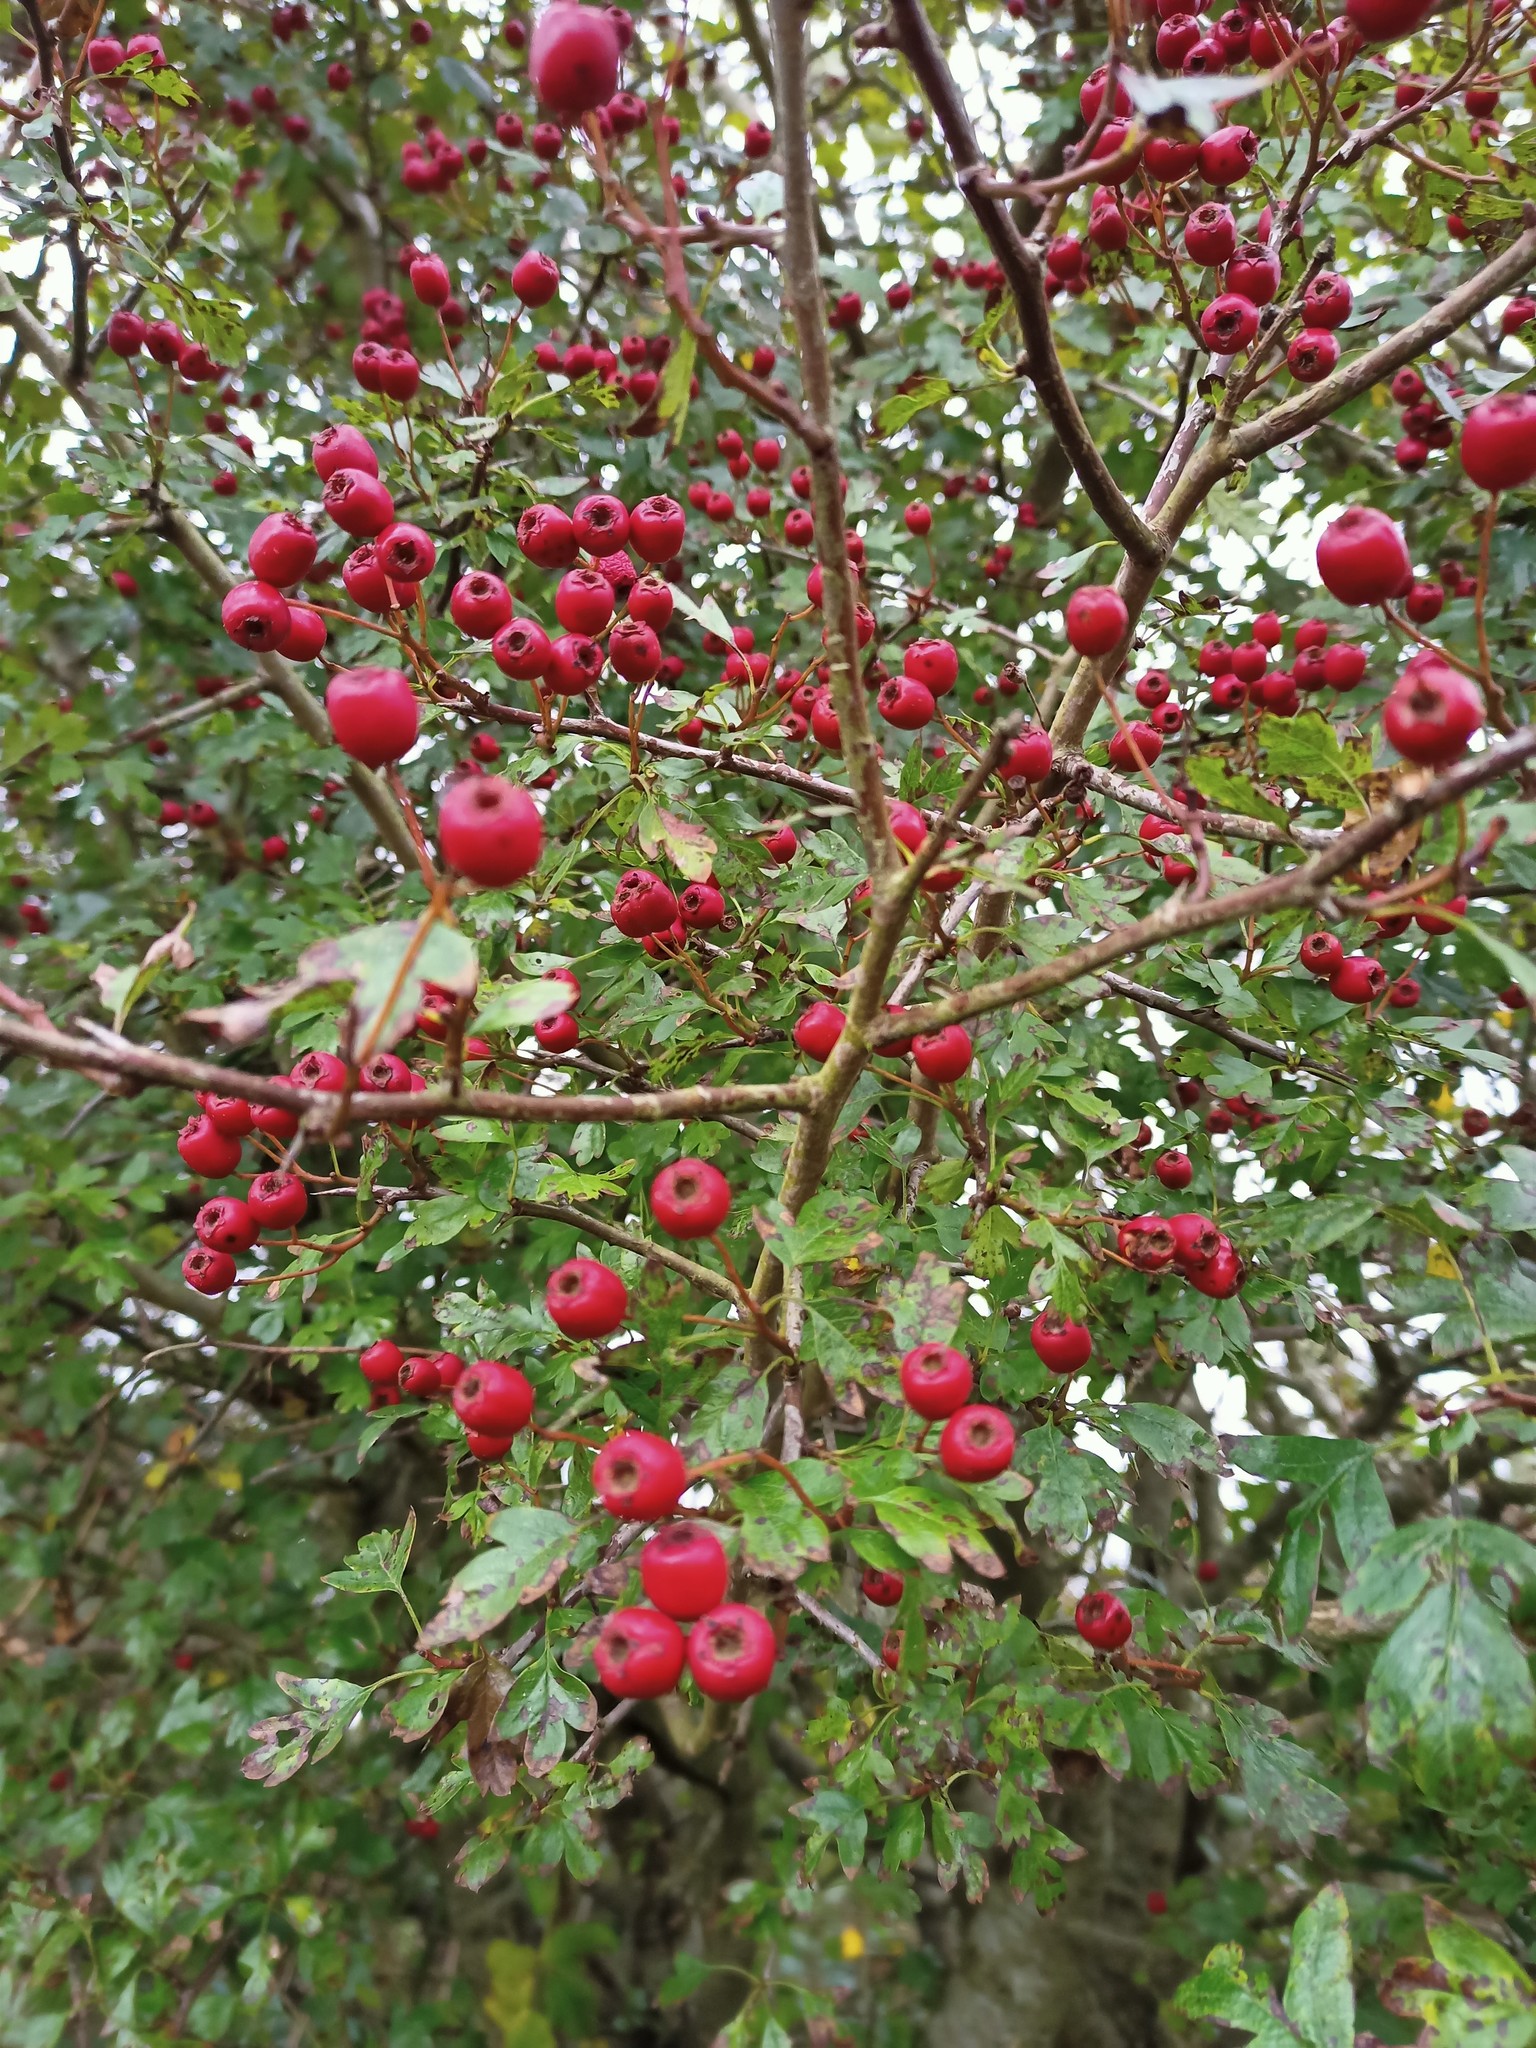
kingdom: Plantae
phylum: Tracheophyta
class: Magnoliopsida
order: Rosales
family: Rosaceae
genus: Crataegus
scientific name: Crataegus monogyna
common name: Hawthorn
